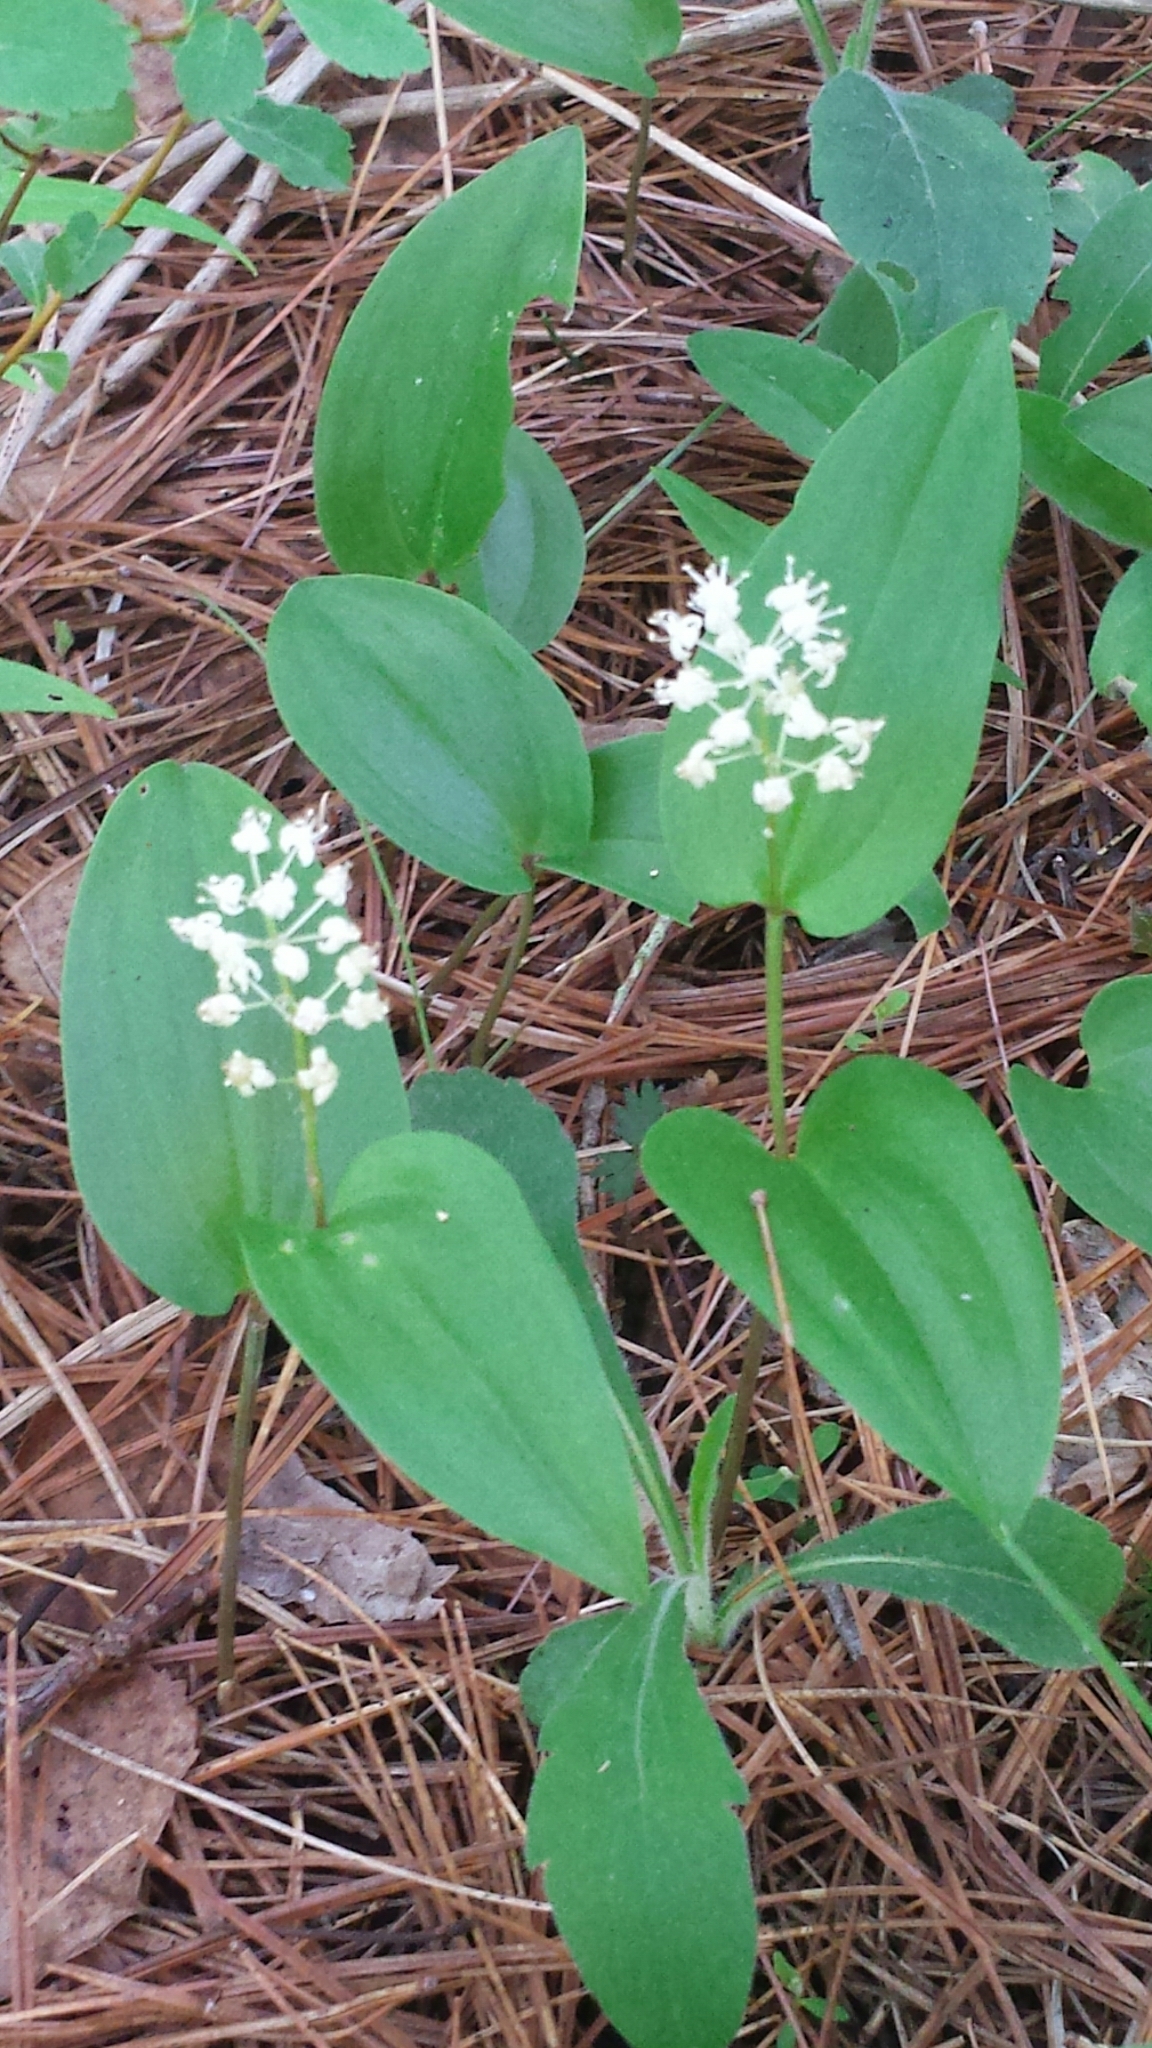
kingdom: Plantae
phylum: Tracheophyta
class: Liliopsida
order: Asparagales
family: Asparagaceae
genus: Maianthemum
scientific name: Maianthemum canadense
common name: False lily-of-the-valley
